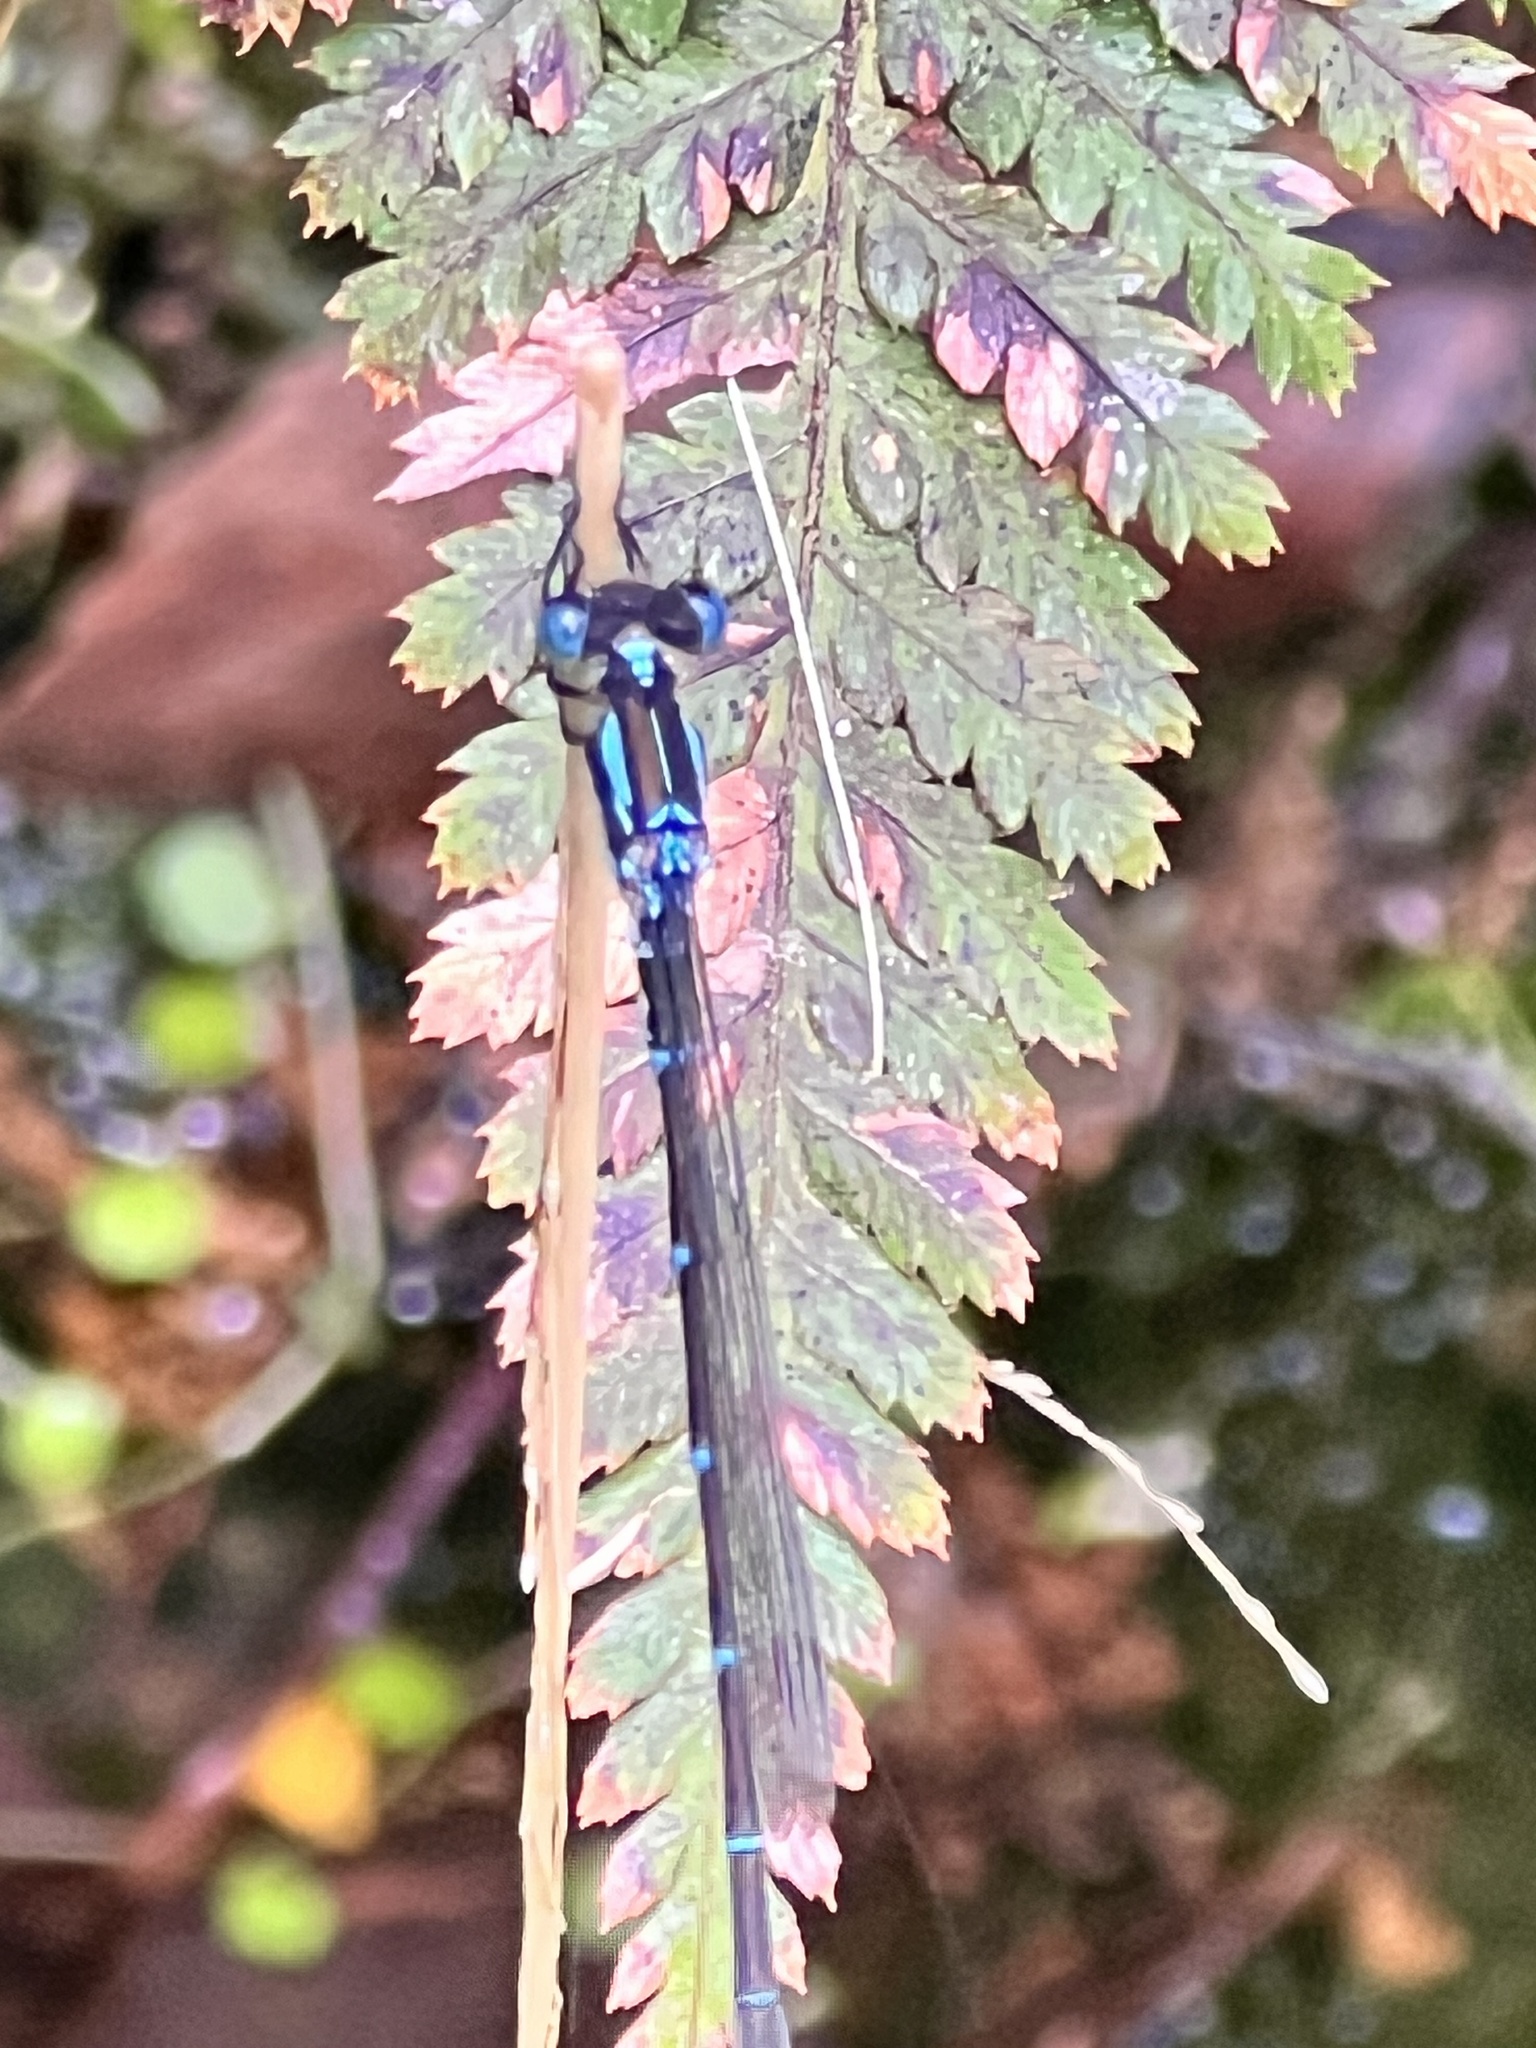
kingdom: Animalia
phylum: Arthropoda
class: Insecta
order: Odonata
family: Lestidae
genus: Austrolestes
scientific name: Austrolestes colensonis
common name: Blue damselfly
